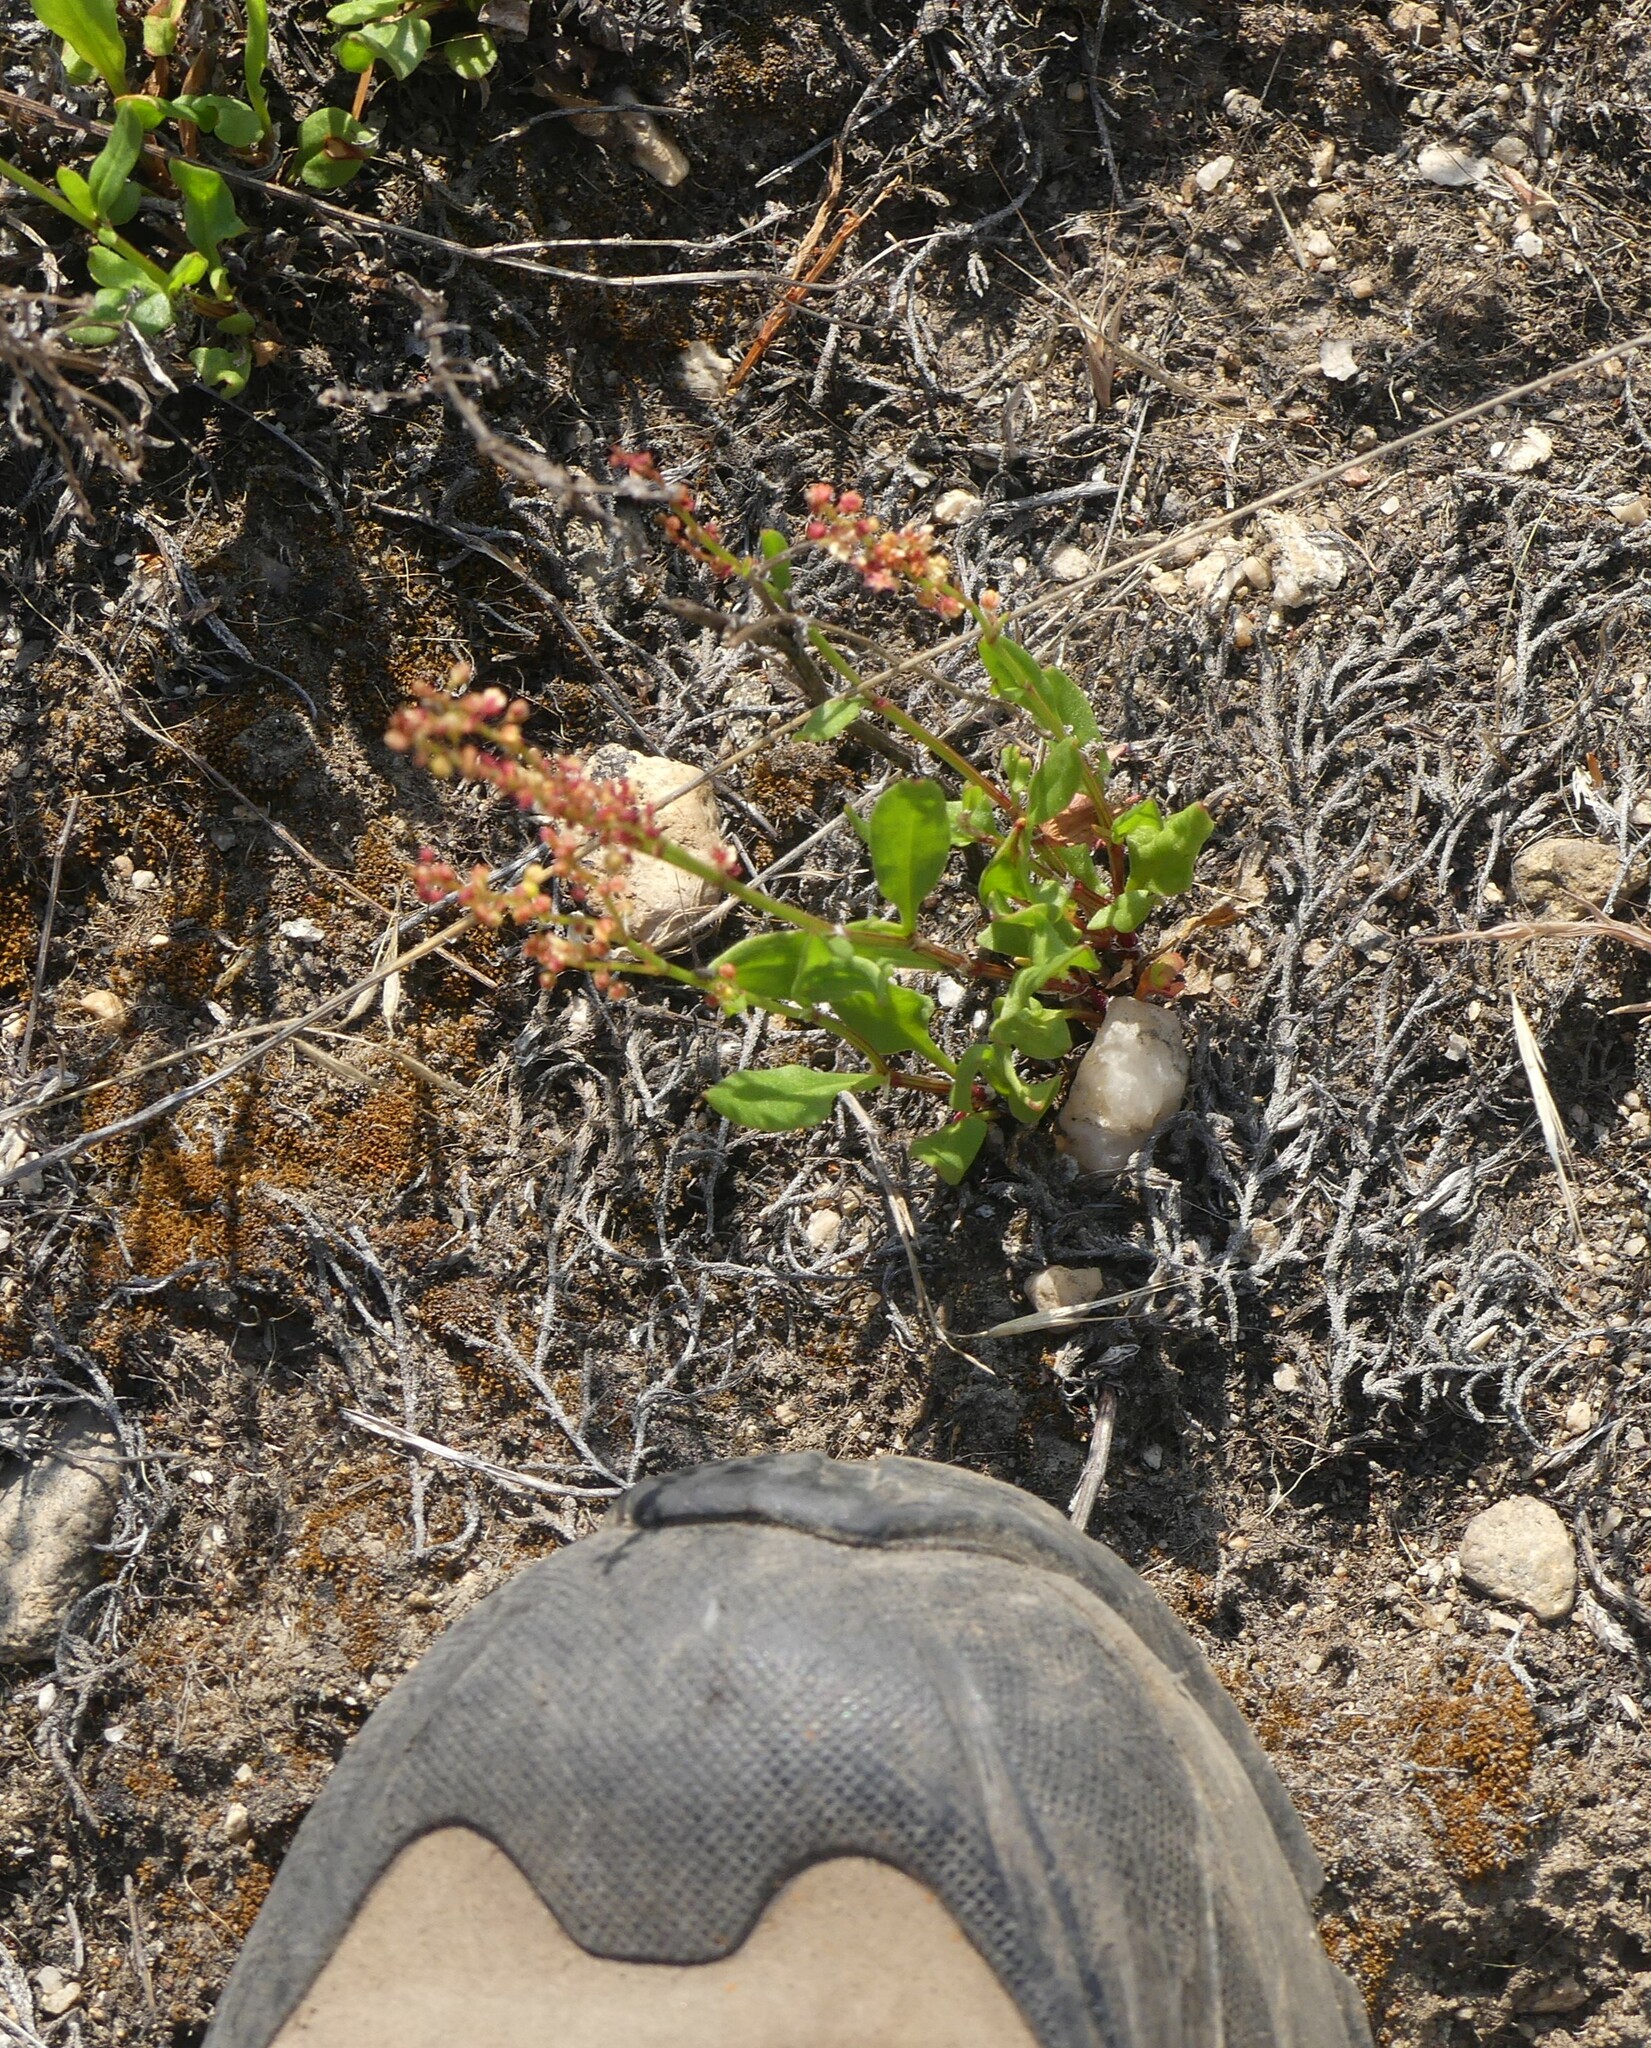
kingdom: Plantae
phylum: Tracheophyta
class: Magnoliopsida
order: Caryophyllales
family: Polygonaceae
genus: Rumex
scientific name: Rumex acetosella
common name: Common sheep sorrel
